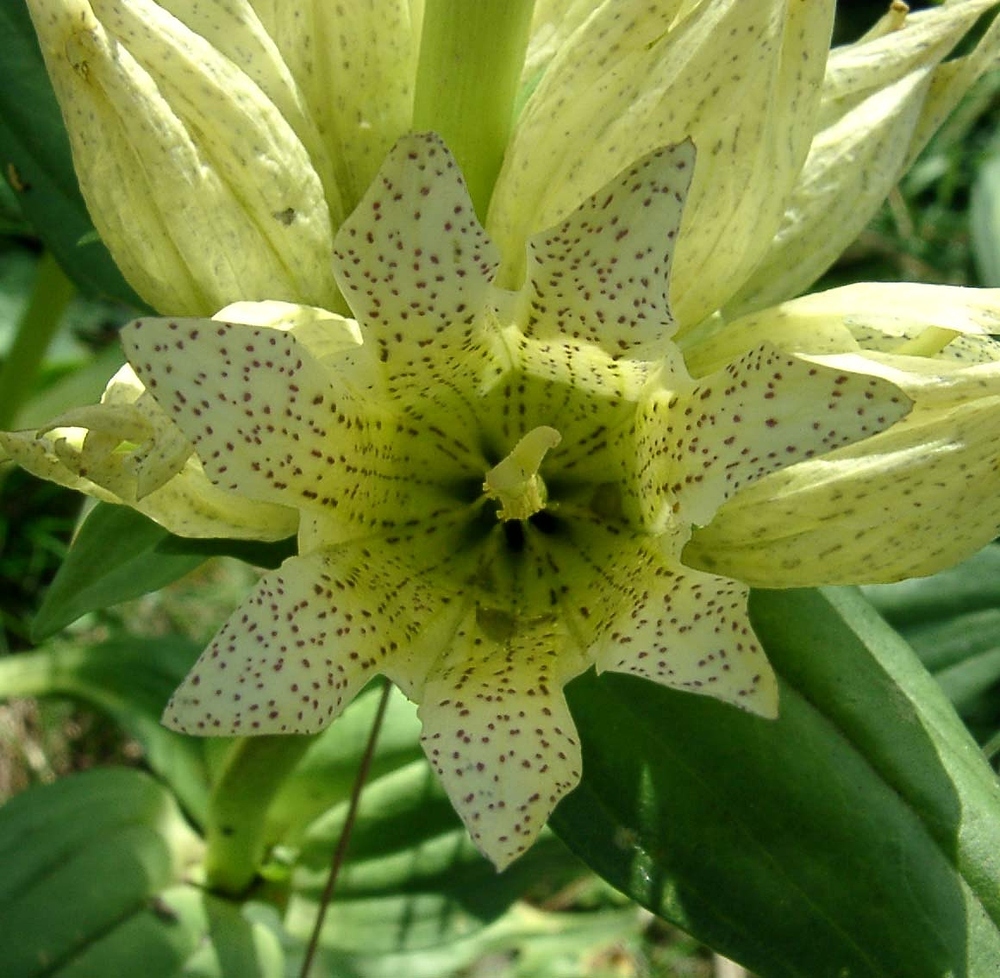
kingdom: Plantae
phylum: Tracheophyta
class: Magnoliopsida
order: Gentianales
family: Gentianaceae
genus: Gentiana
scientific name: Gentiana burseri
